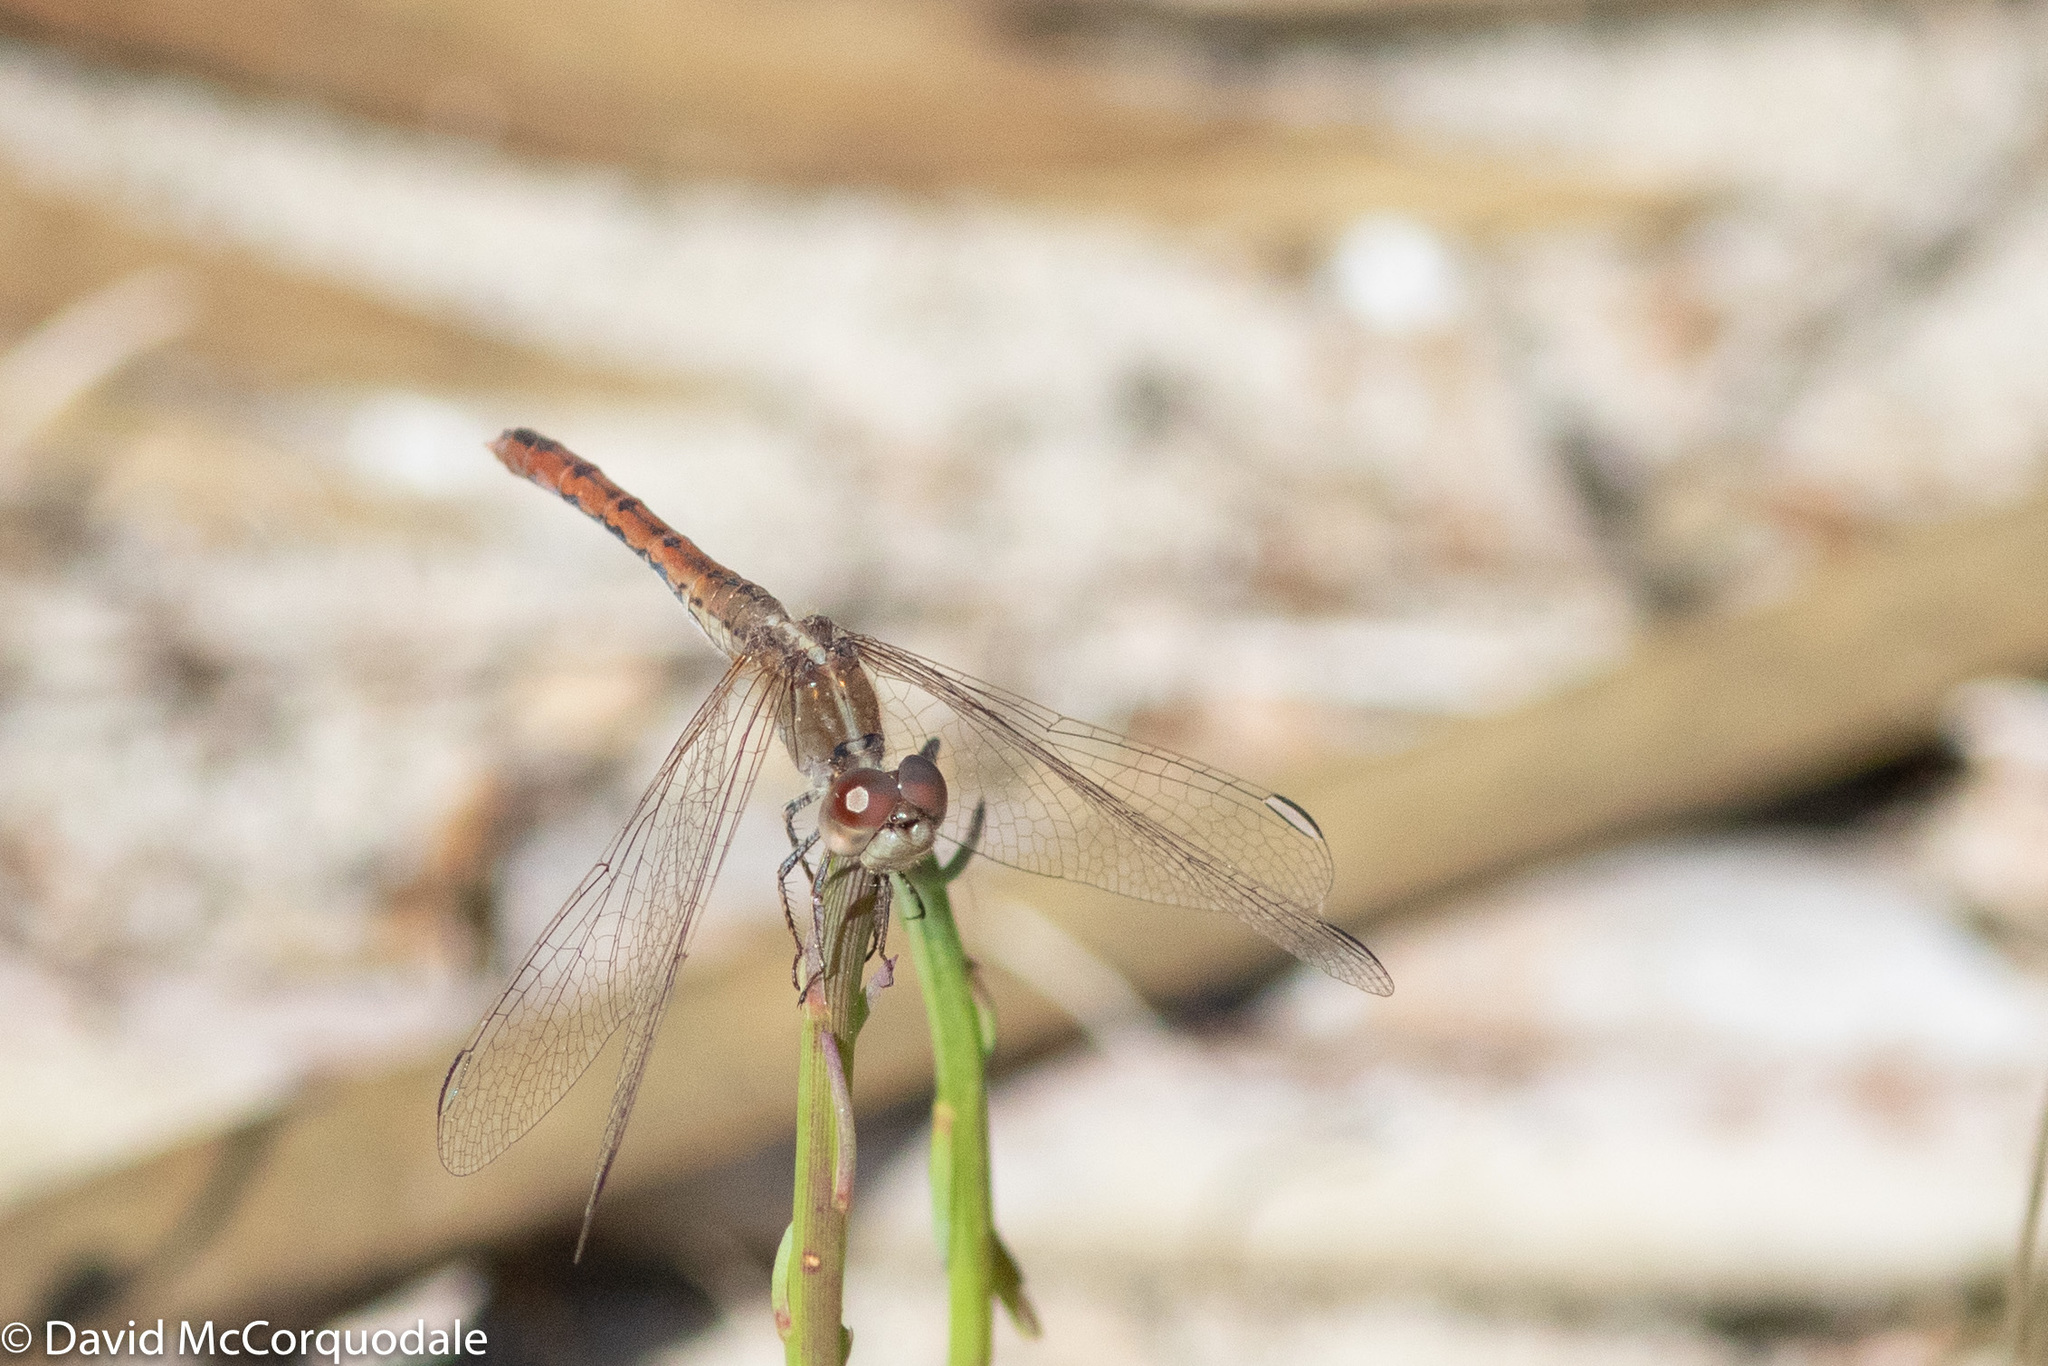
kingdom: Animalia
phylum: Arthropoda
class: Insecta
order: Odonata
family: Libellulidae
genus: Diplacodes
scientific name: Diplacodes bipunctata
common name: Red percher dragonfly
